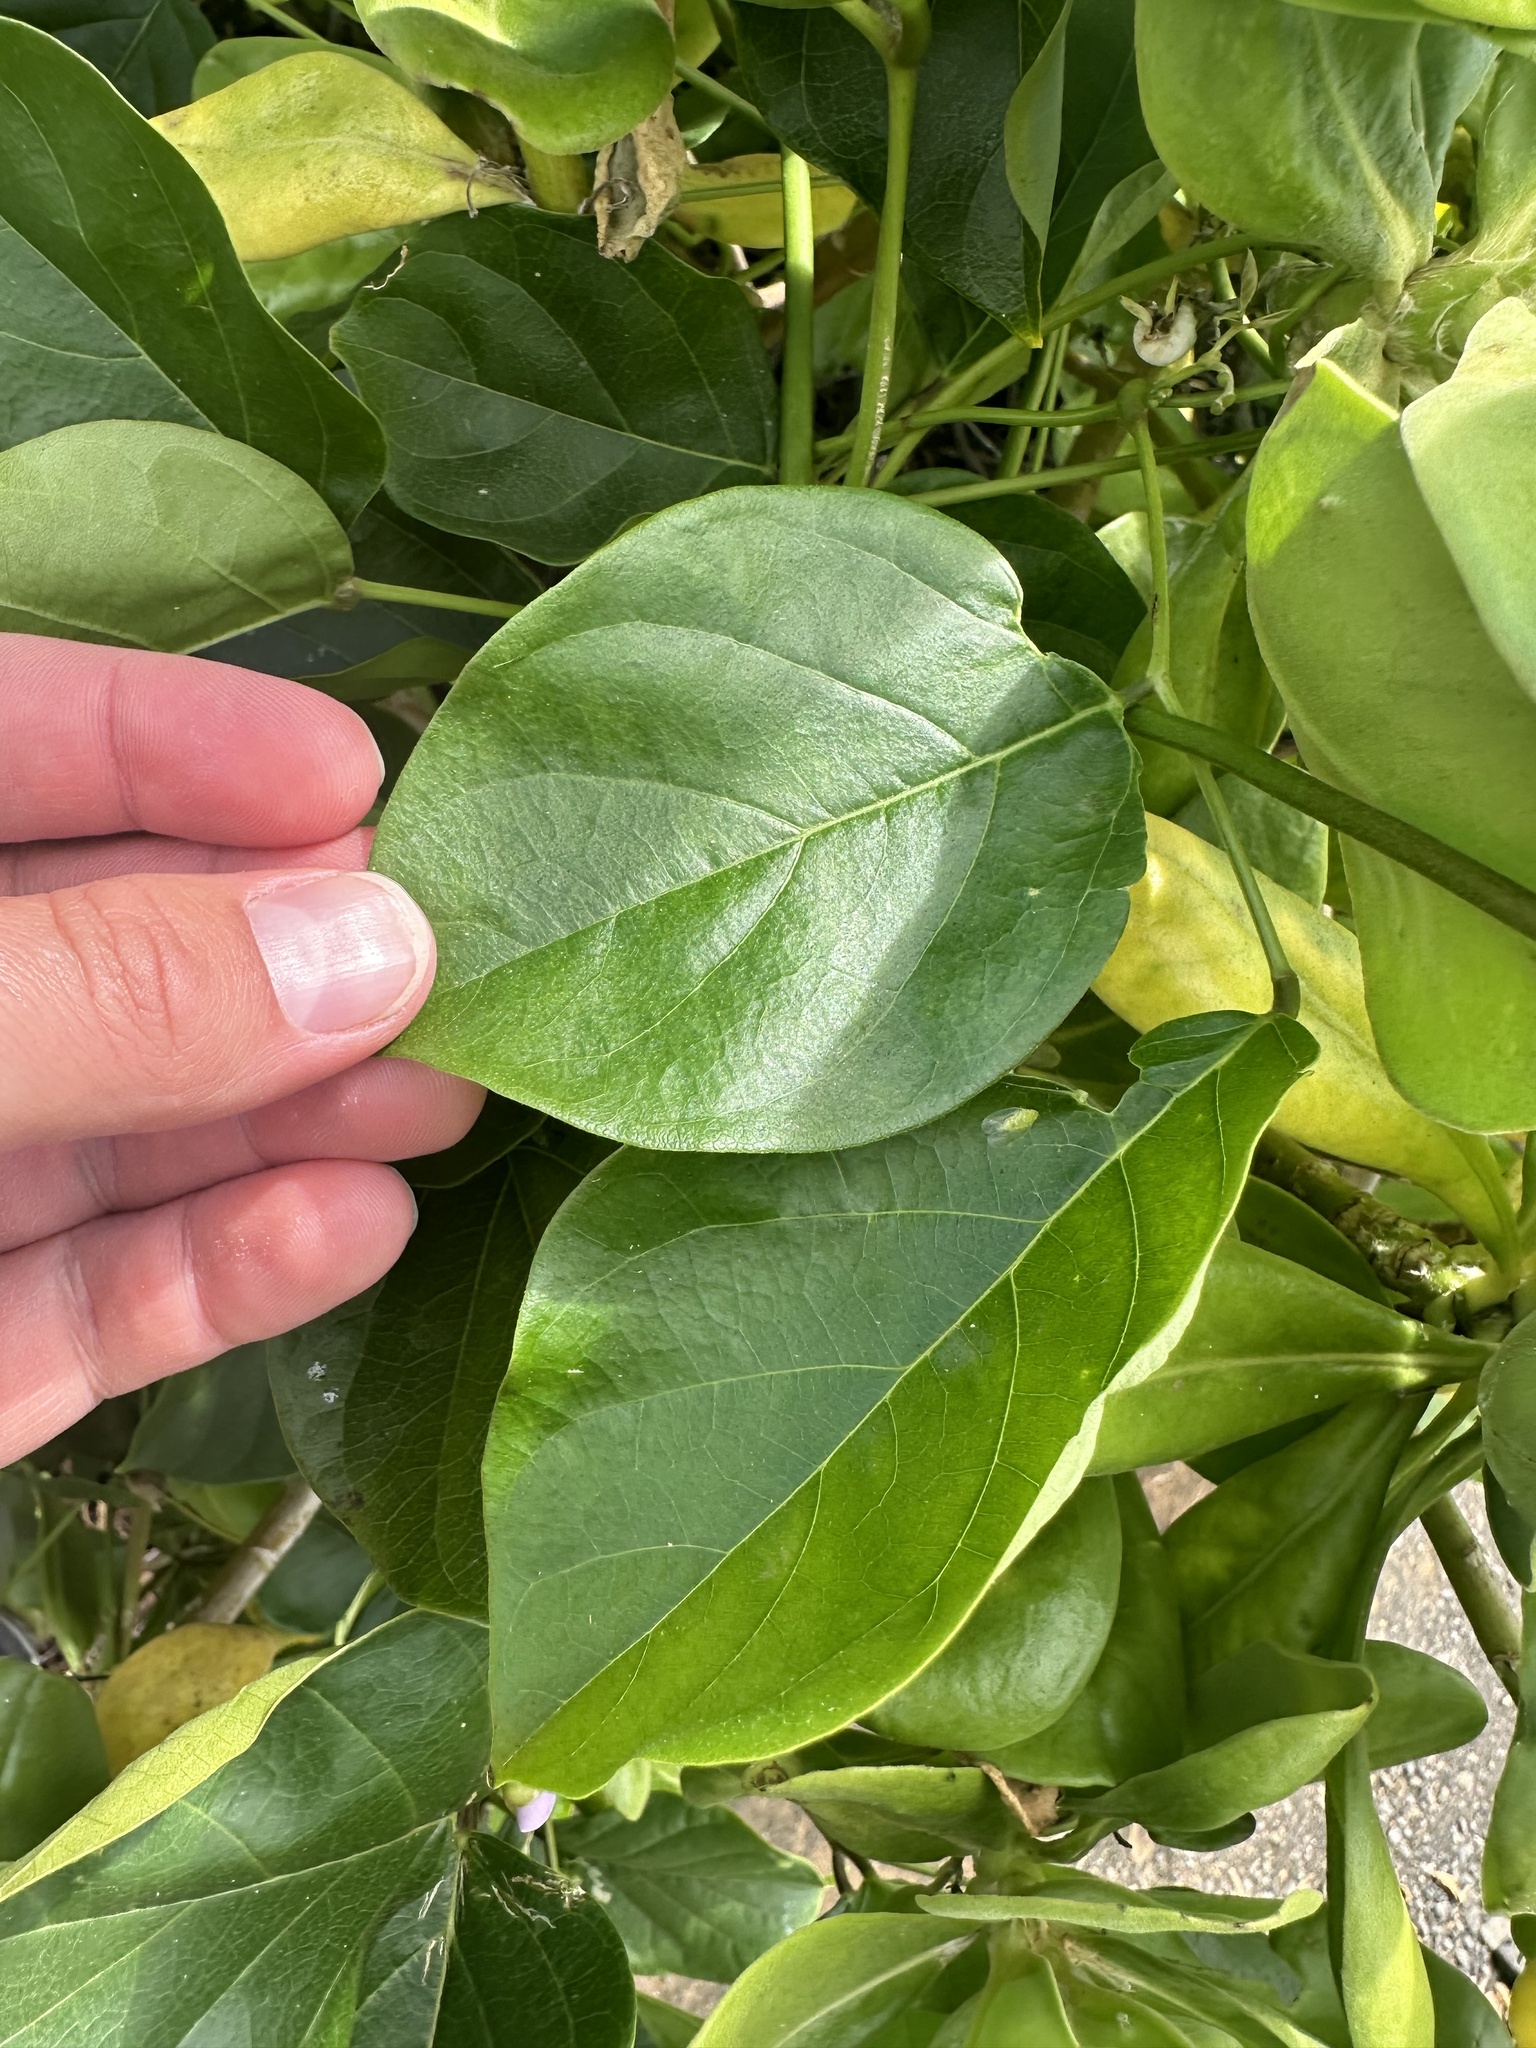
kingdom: Plantae
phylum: Tracheophyta
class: Magnoliopsida
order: Fabales
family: Fabaceae
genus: Canavalia
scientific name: Canavalia cathartica
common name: Maunaloa
